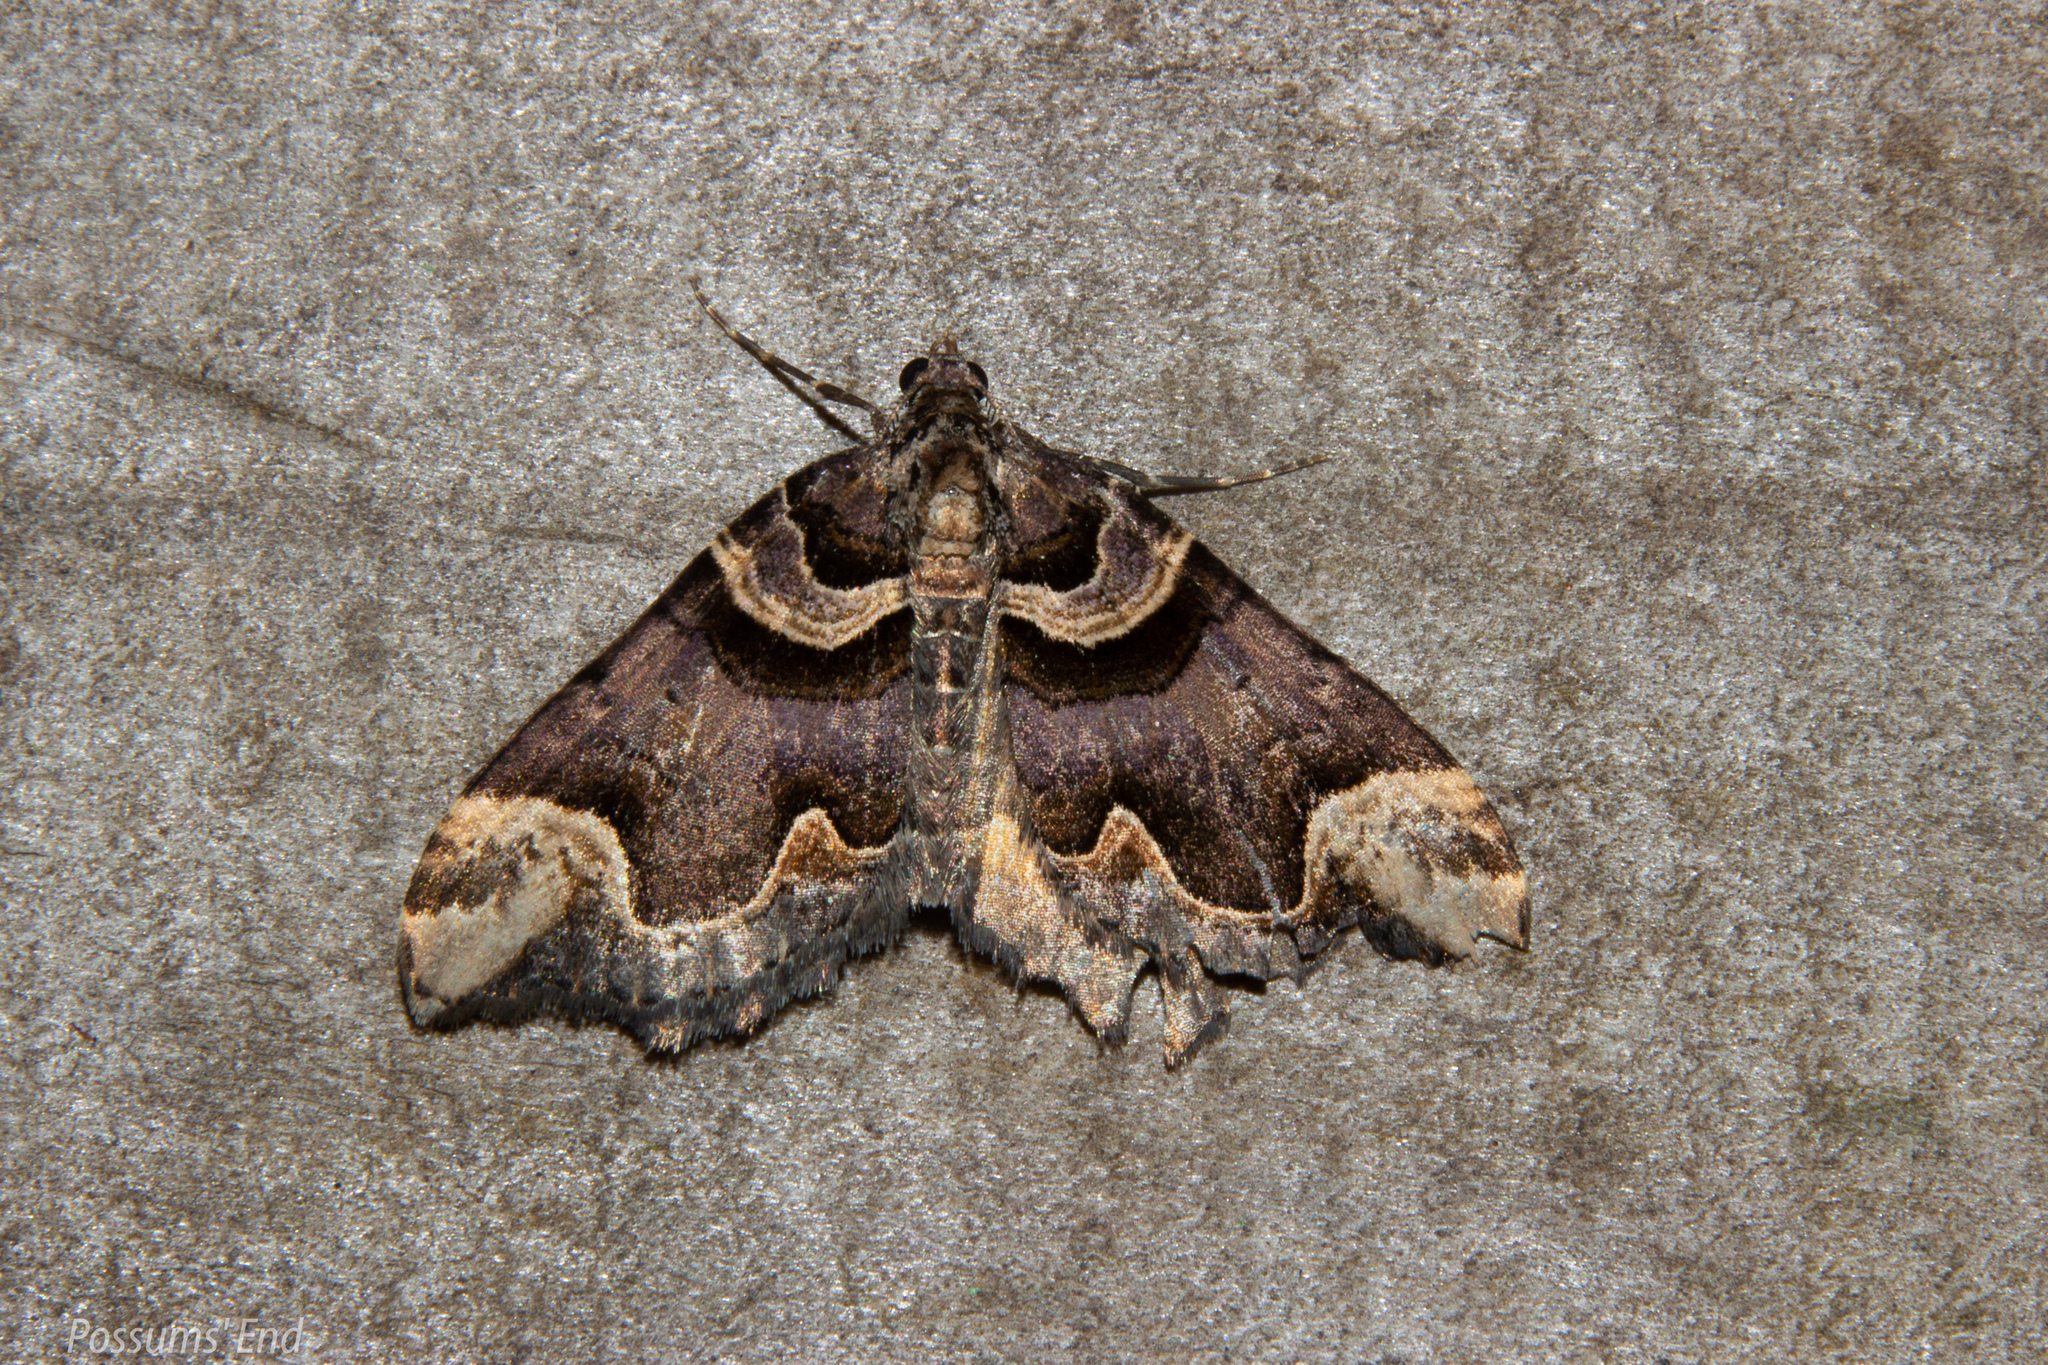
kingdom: Animalia
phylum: Arthropoda
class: Insecta
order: Lepidoptera
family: Geometridae
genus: Asaphodes
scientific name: Asaphodes chlamydota
